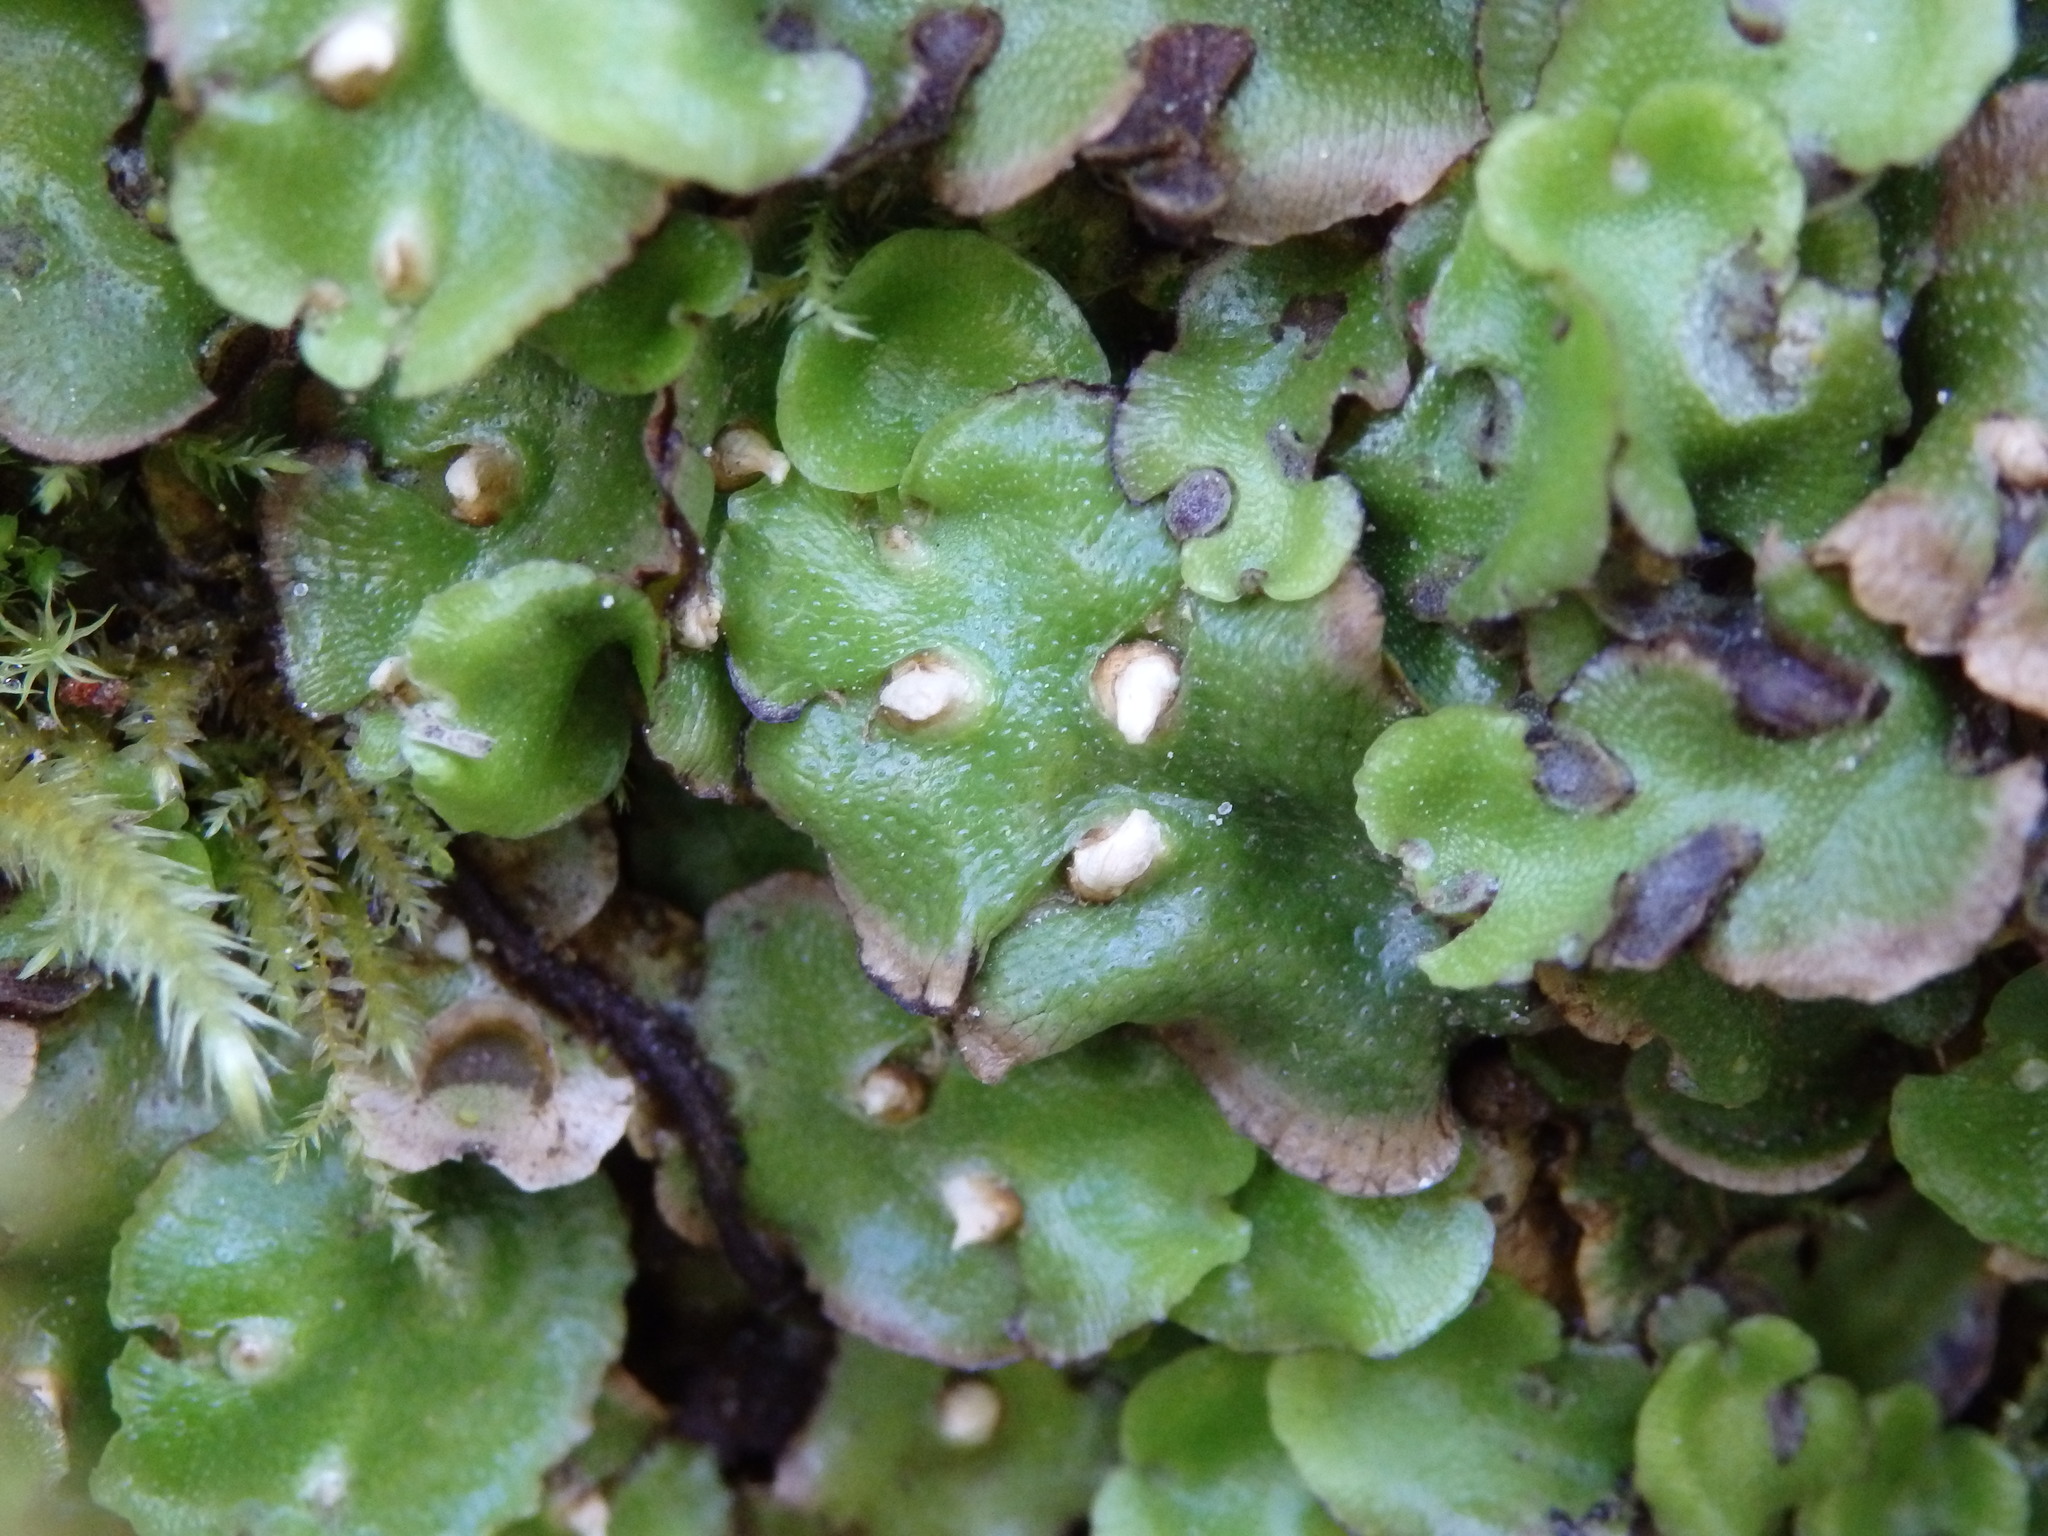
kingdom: Plantae
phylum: Marchantiophyta
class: Marchantiopsida
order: Lunulariales
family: Lunulariaceae
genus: Lunularia
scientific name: Lunularia cruciata
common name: Crescent-cup liverwort
